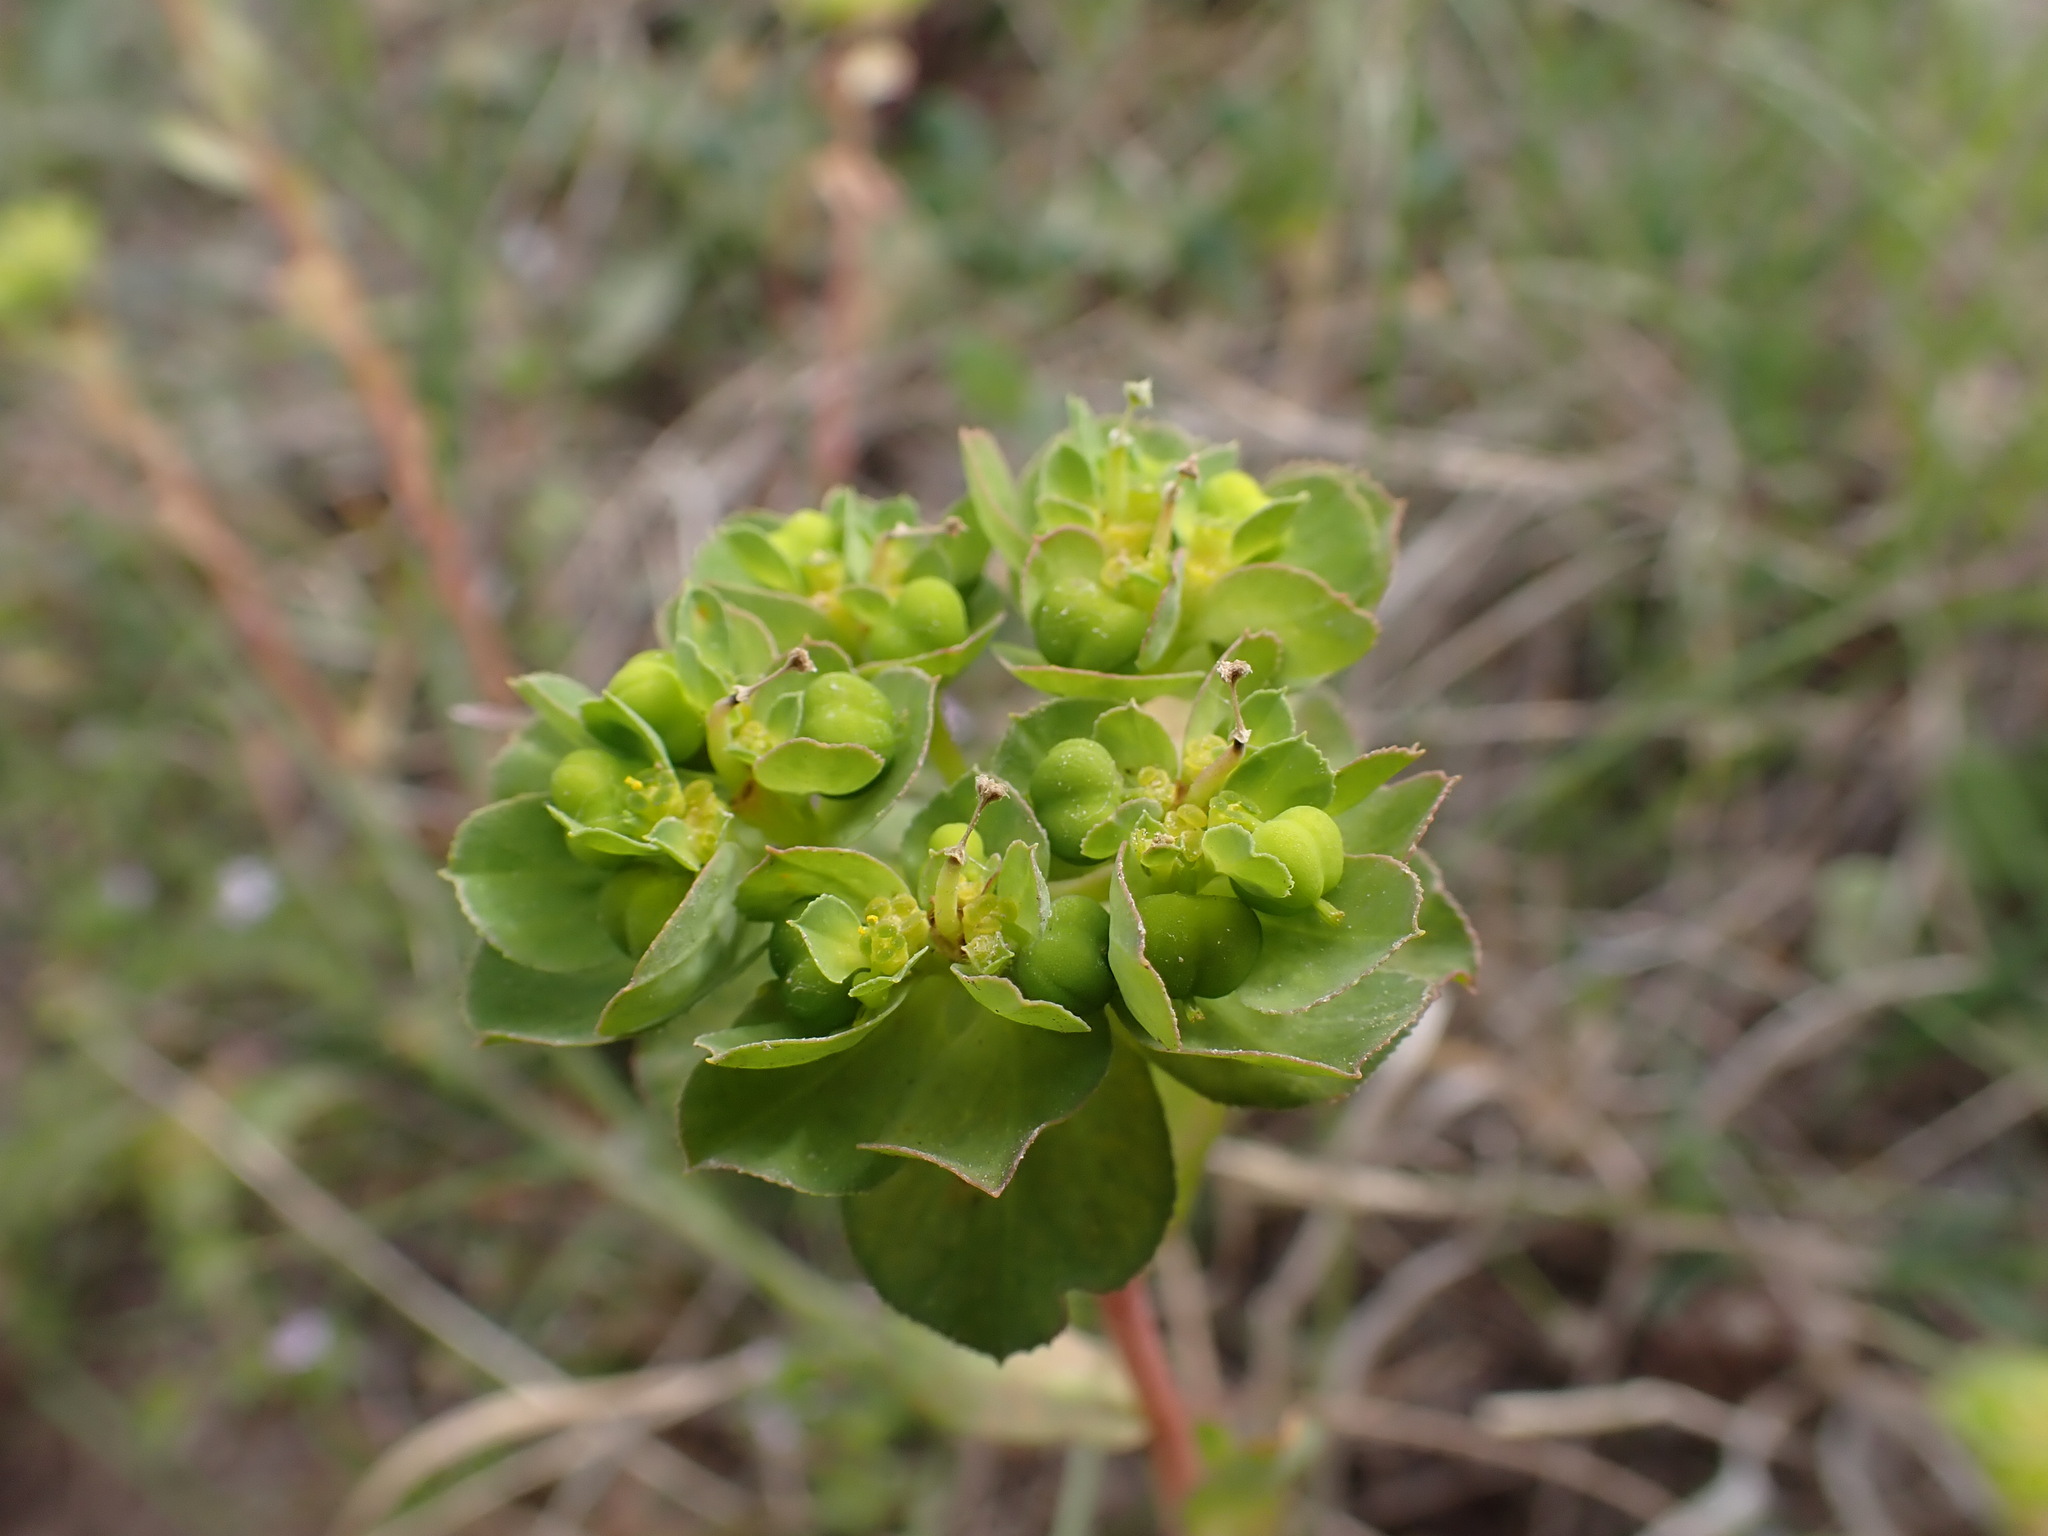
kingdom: Plantae
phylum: Tracheophyta
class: Magnoliopsida
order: Malpighiales
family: Euphorbiaceae
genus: Euphorbia
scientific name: Euphorbia helioscopia
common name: Sun spurge
